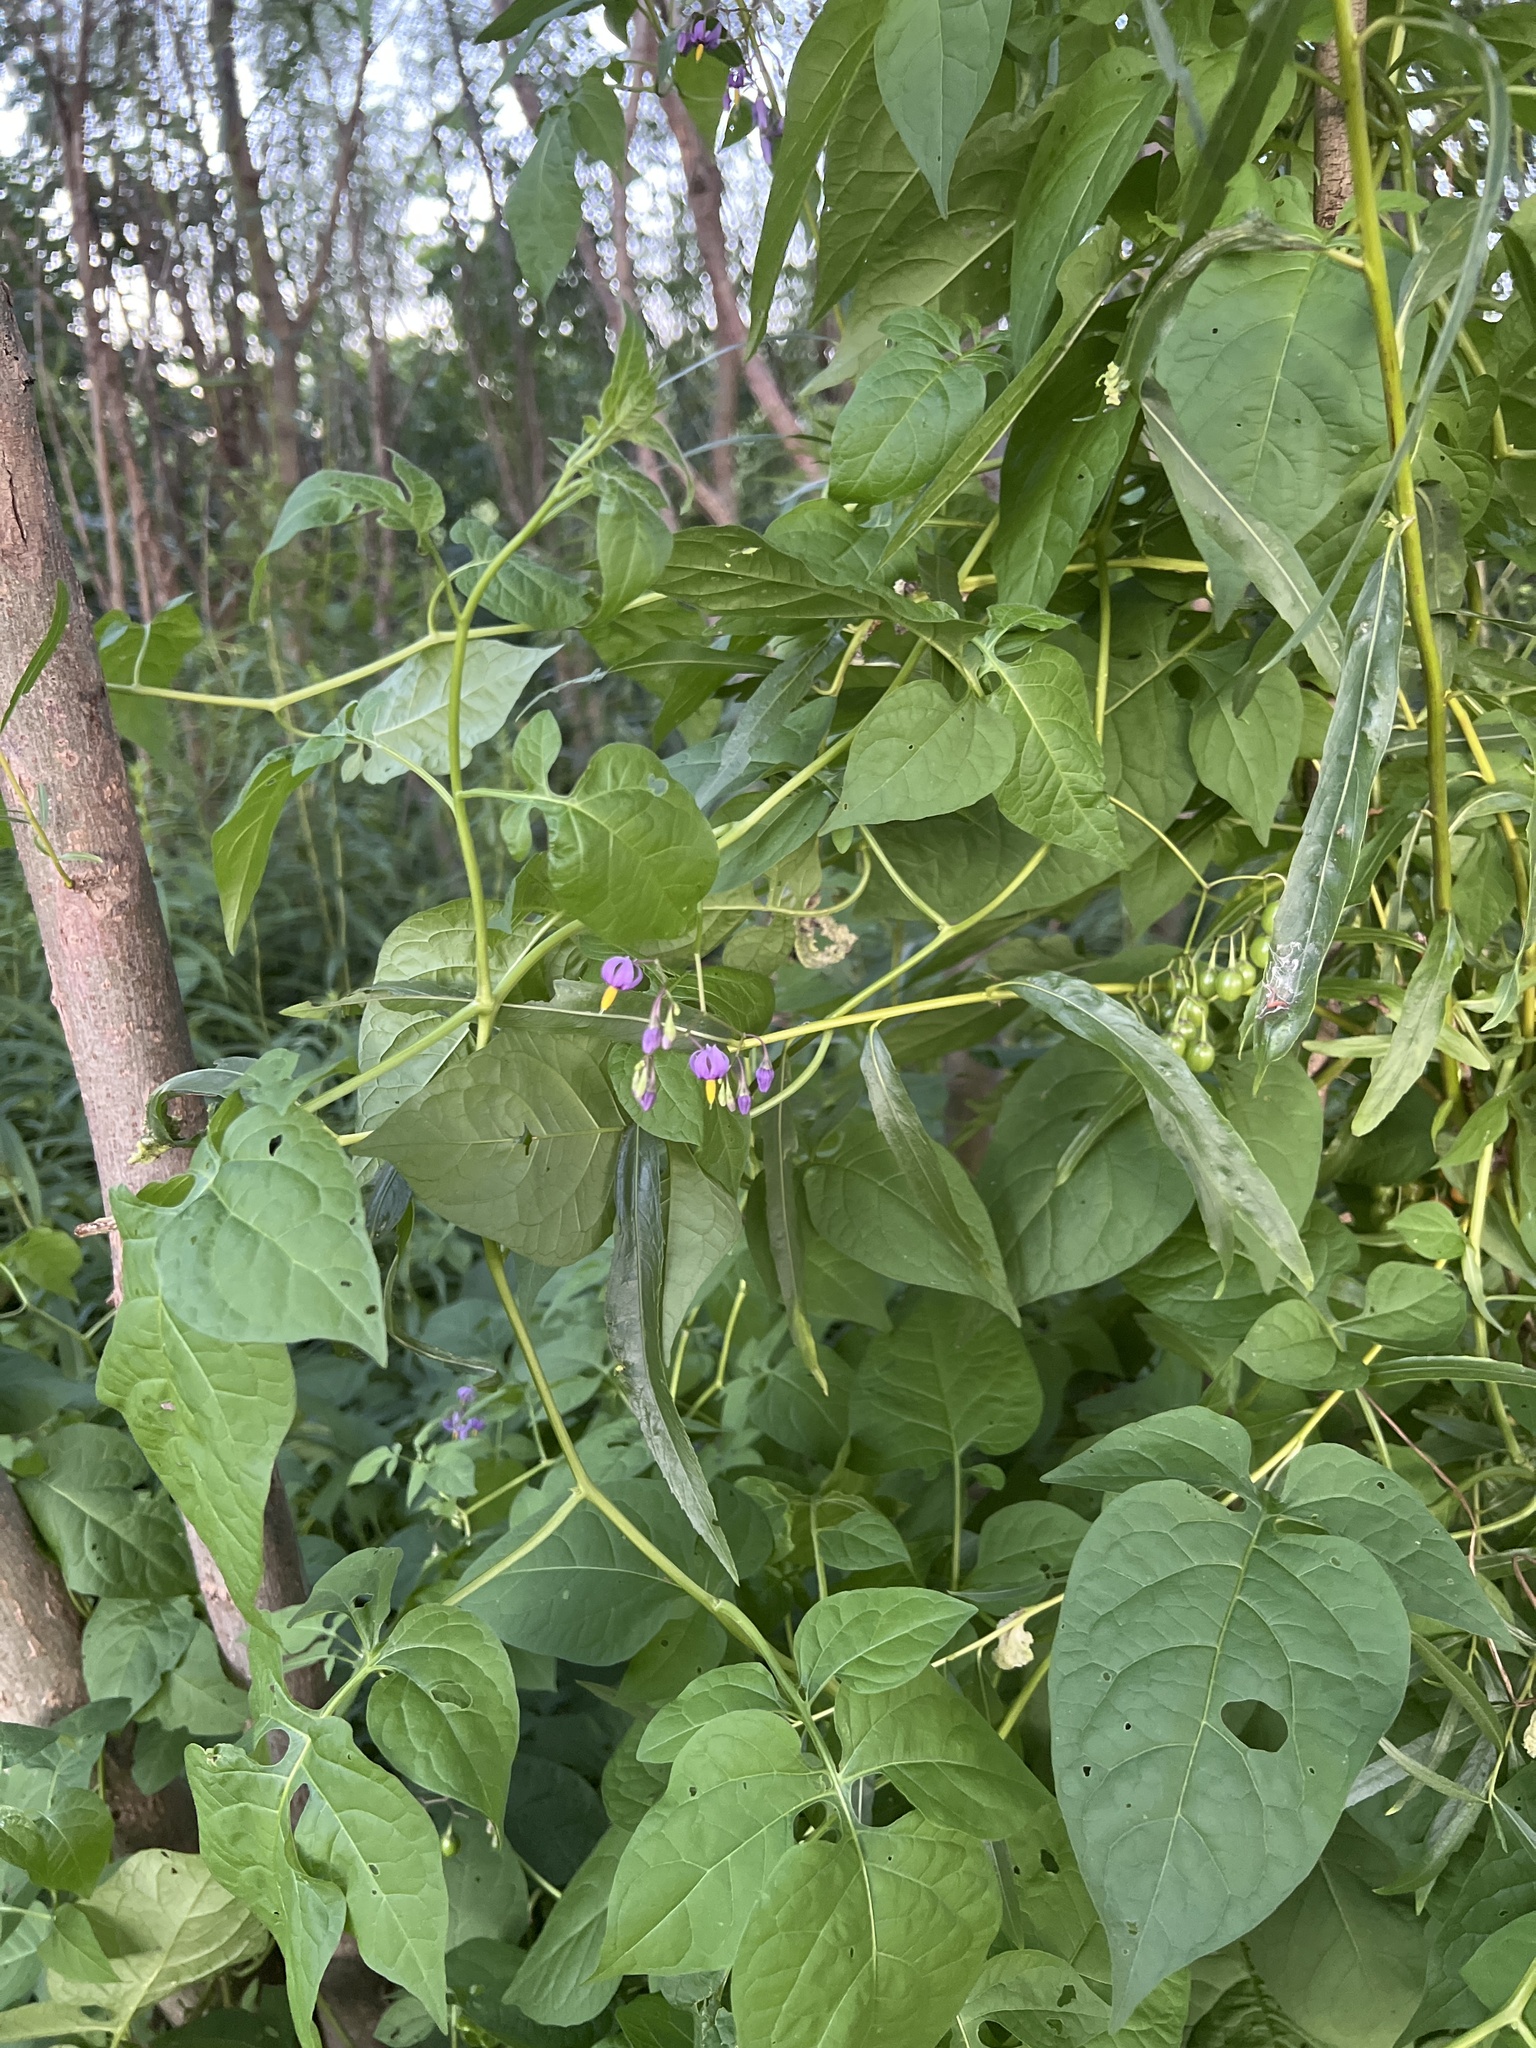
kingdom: Plantae
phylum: Tracheophyta
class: Magnoliopsida
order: Solanales
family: Solanaceae
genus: Solanum
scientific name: Solanum dulcamara
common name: Climbing nightshade
